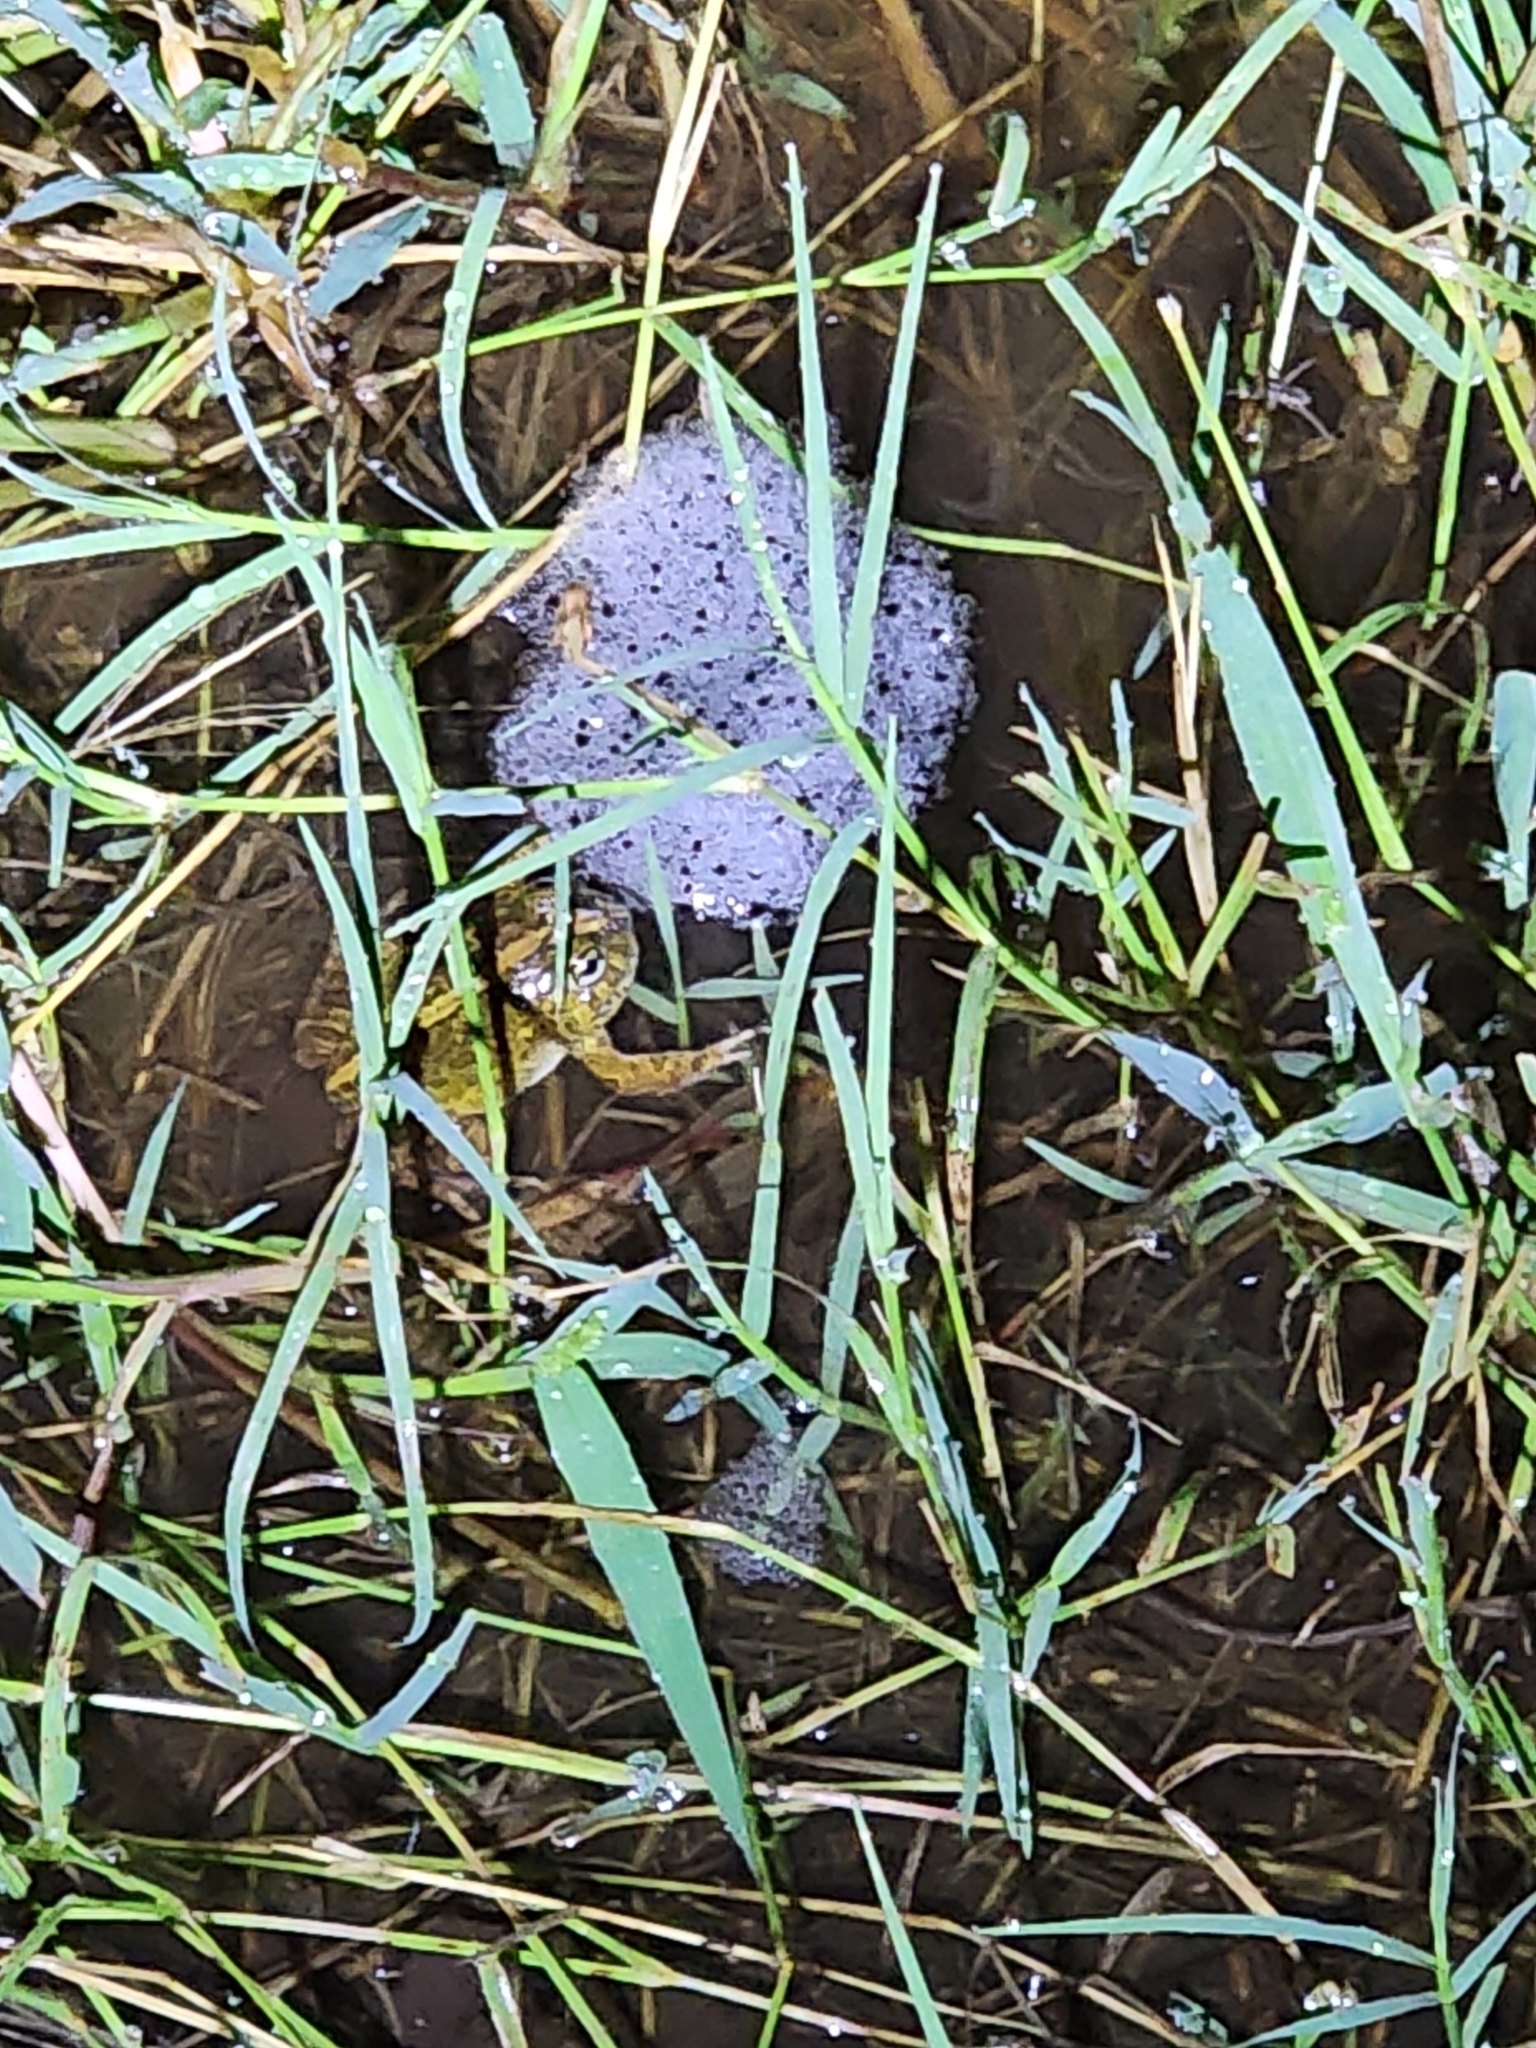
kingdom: Animalia
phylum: Chordata
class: Amphibia
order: Anura
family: Limnodynastidae
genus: Platyplectrum
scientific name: Platyplectrum ornatum
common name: Ornate burrowing frog
